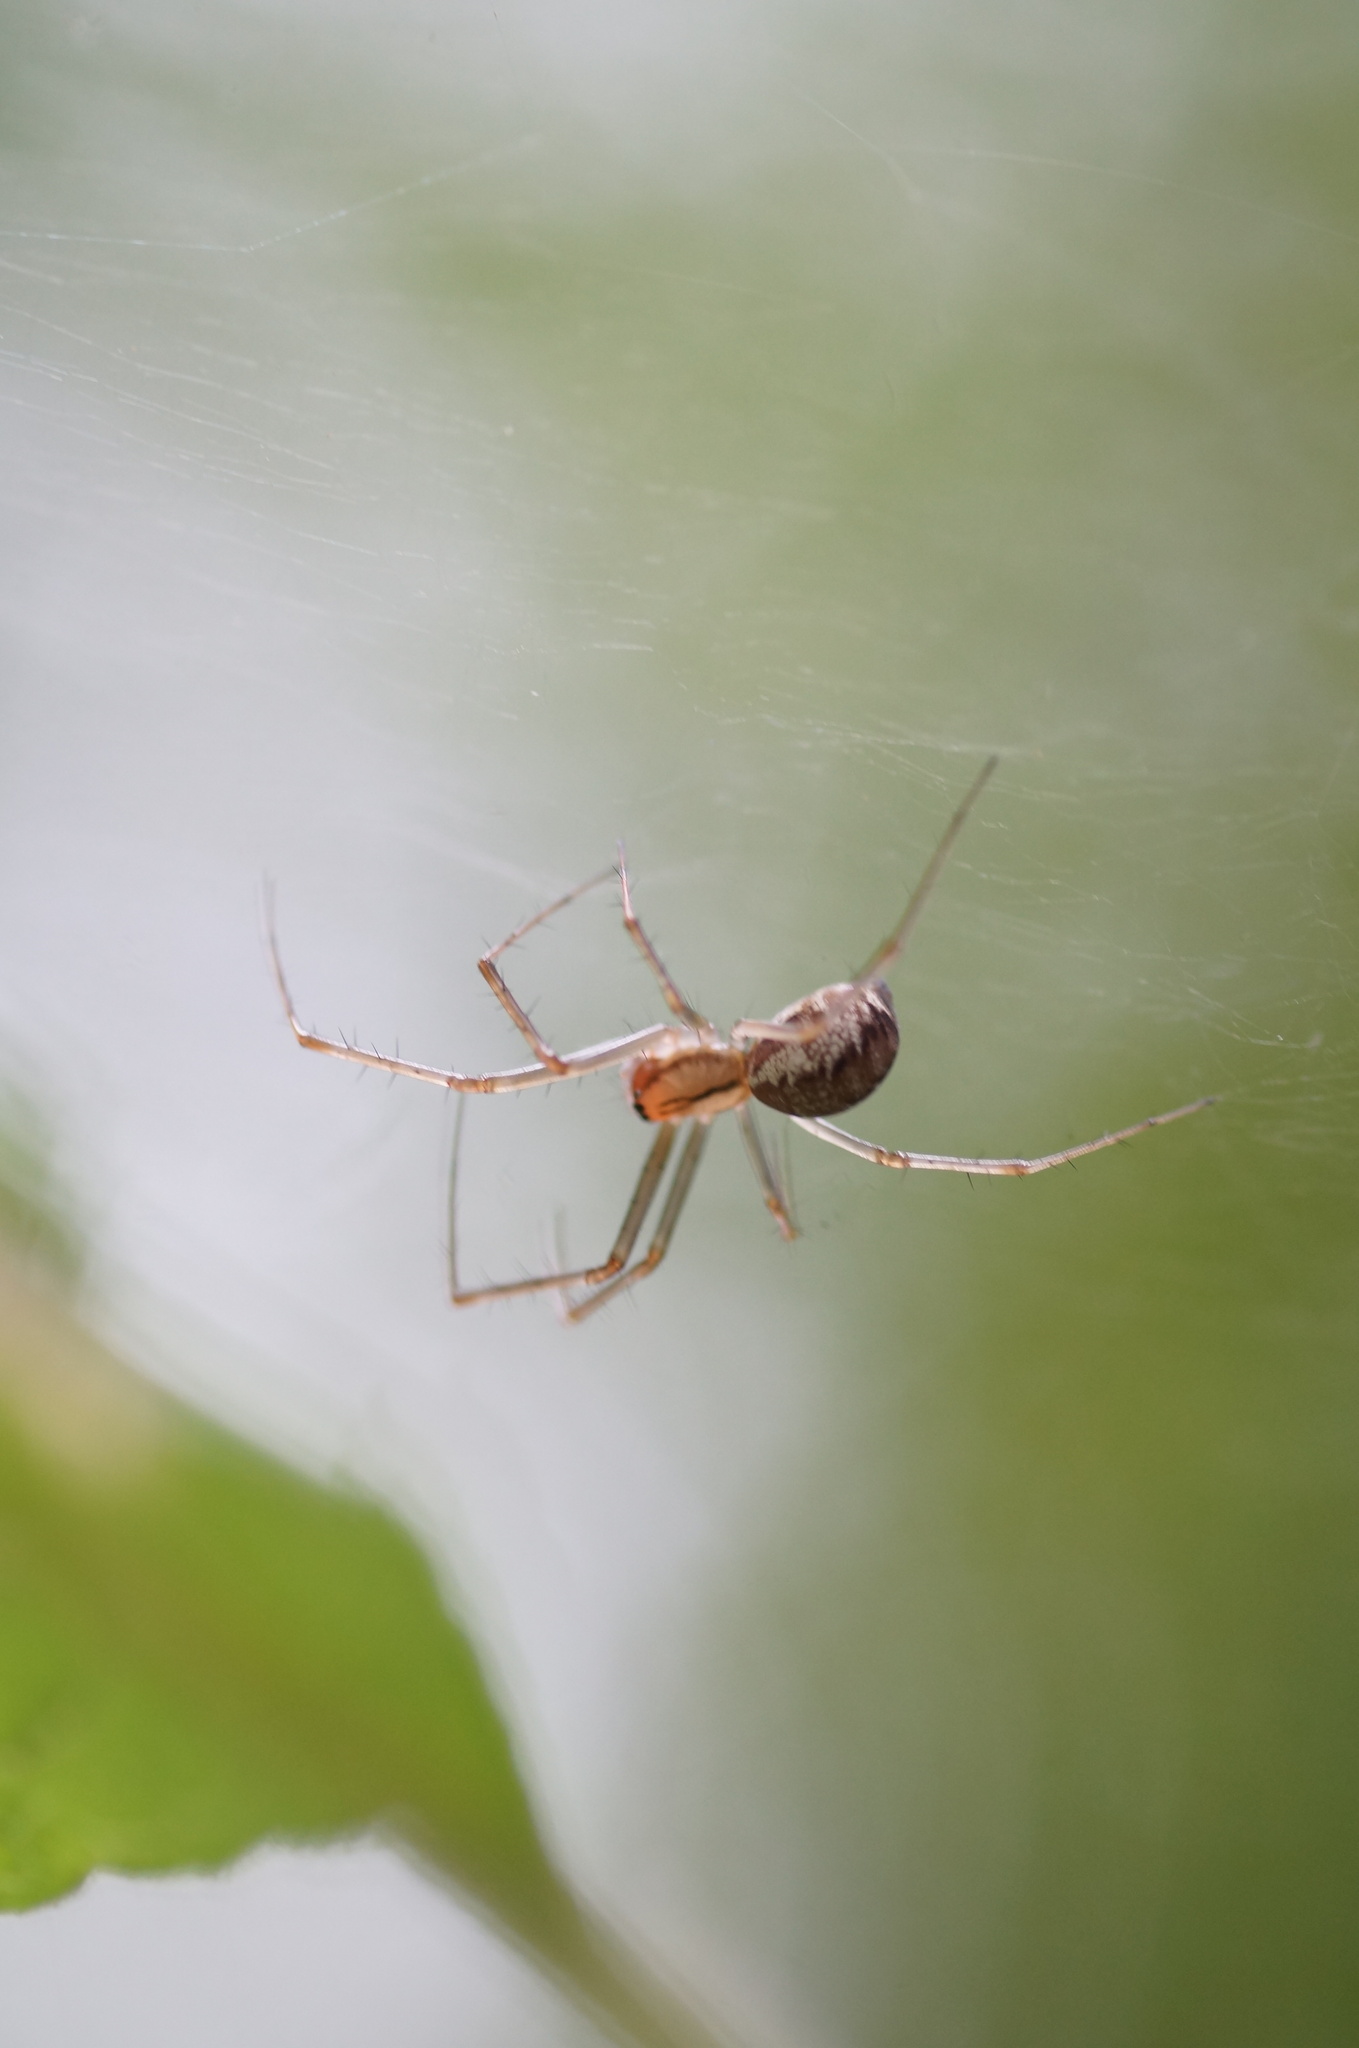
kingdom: Animalia
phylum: Arthropoda
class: Arachnida
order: Araneae
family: Linyphiidae
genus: Linyphia
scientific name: Linyphia triangularis
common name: Money spider
